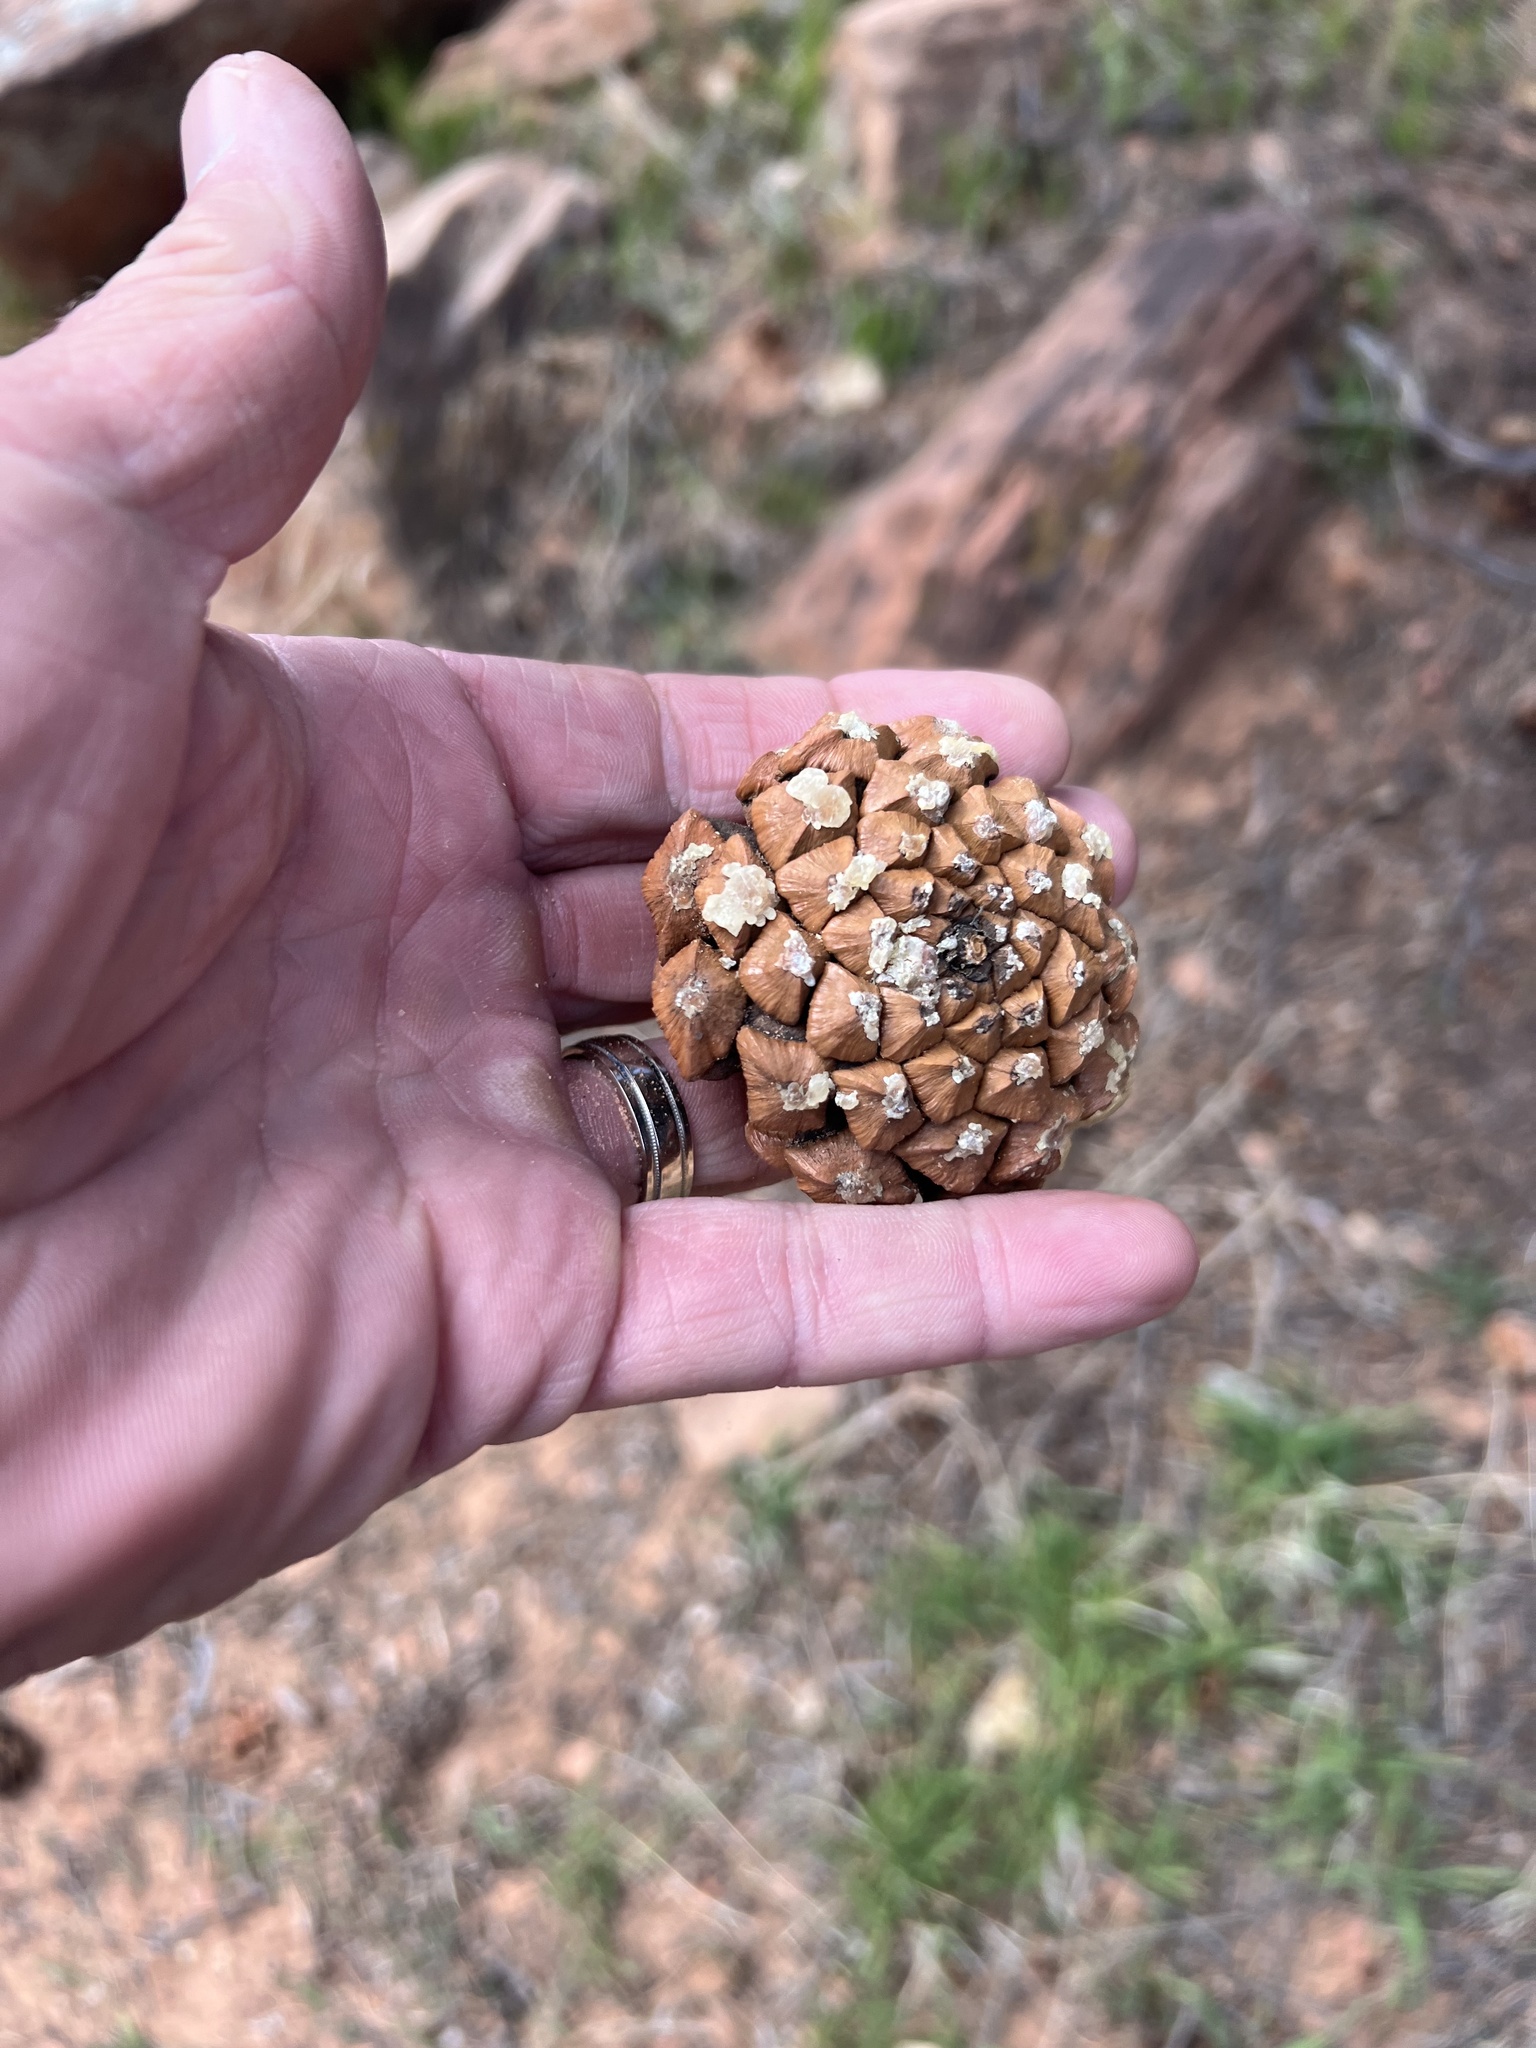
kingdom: Plantae
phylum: Tracheophyta
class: Pinopsida
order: Pinales
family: Pinaceae
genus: Pinus
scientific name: Pinus monophylla
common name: One-leaved nut pine
